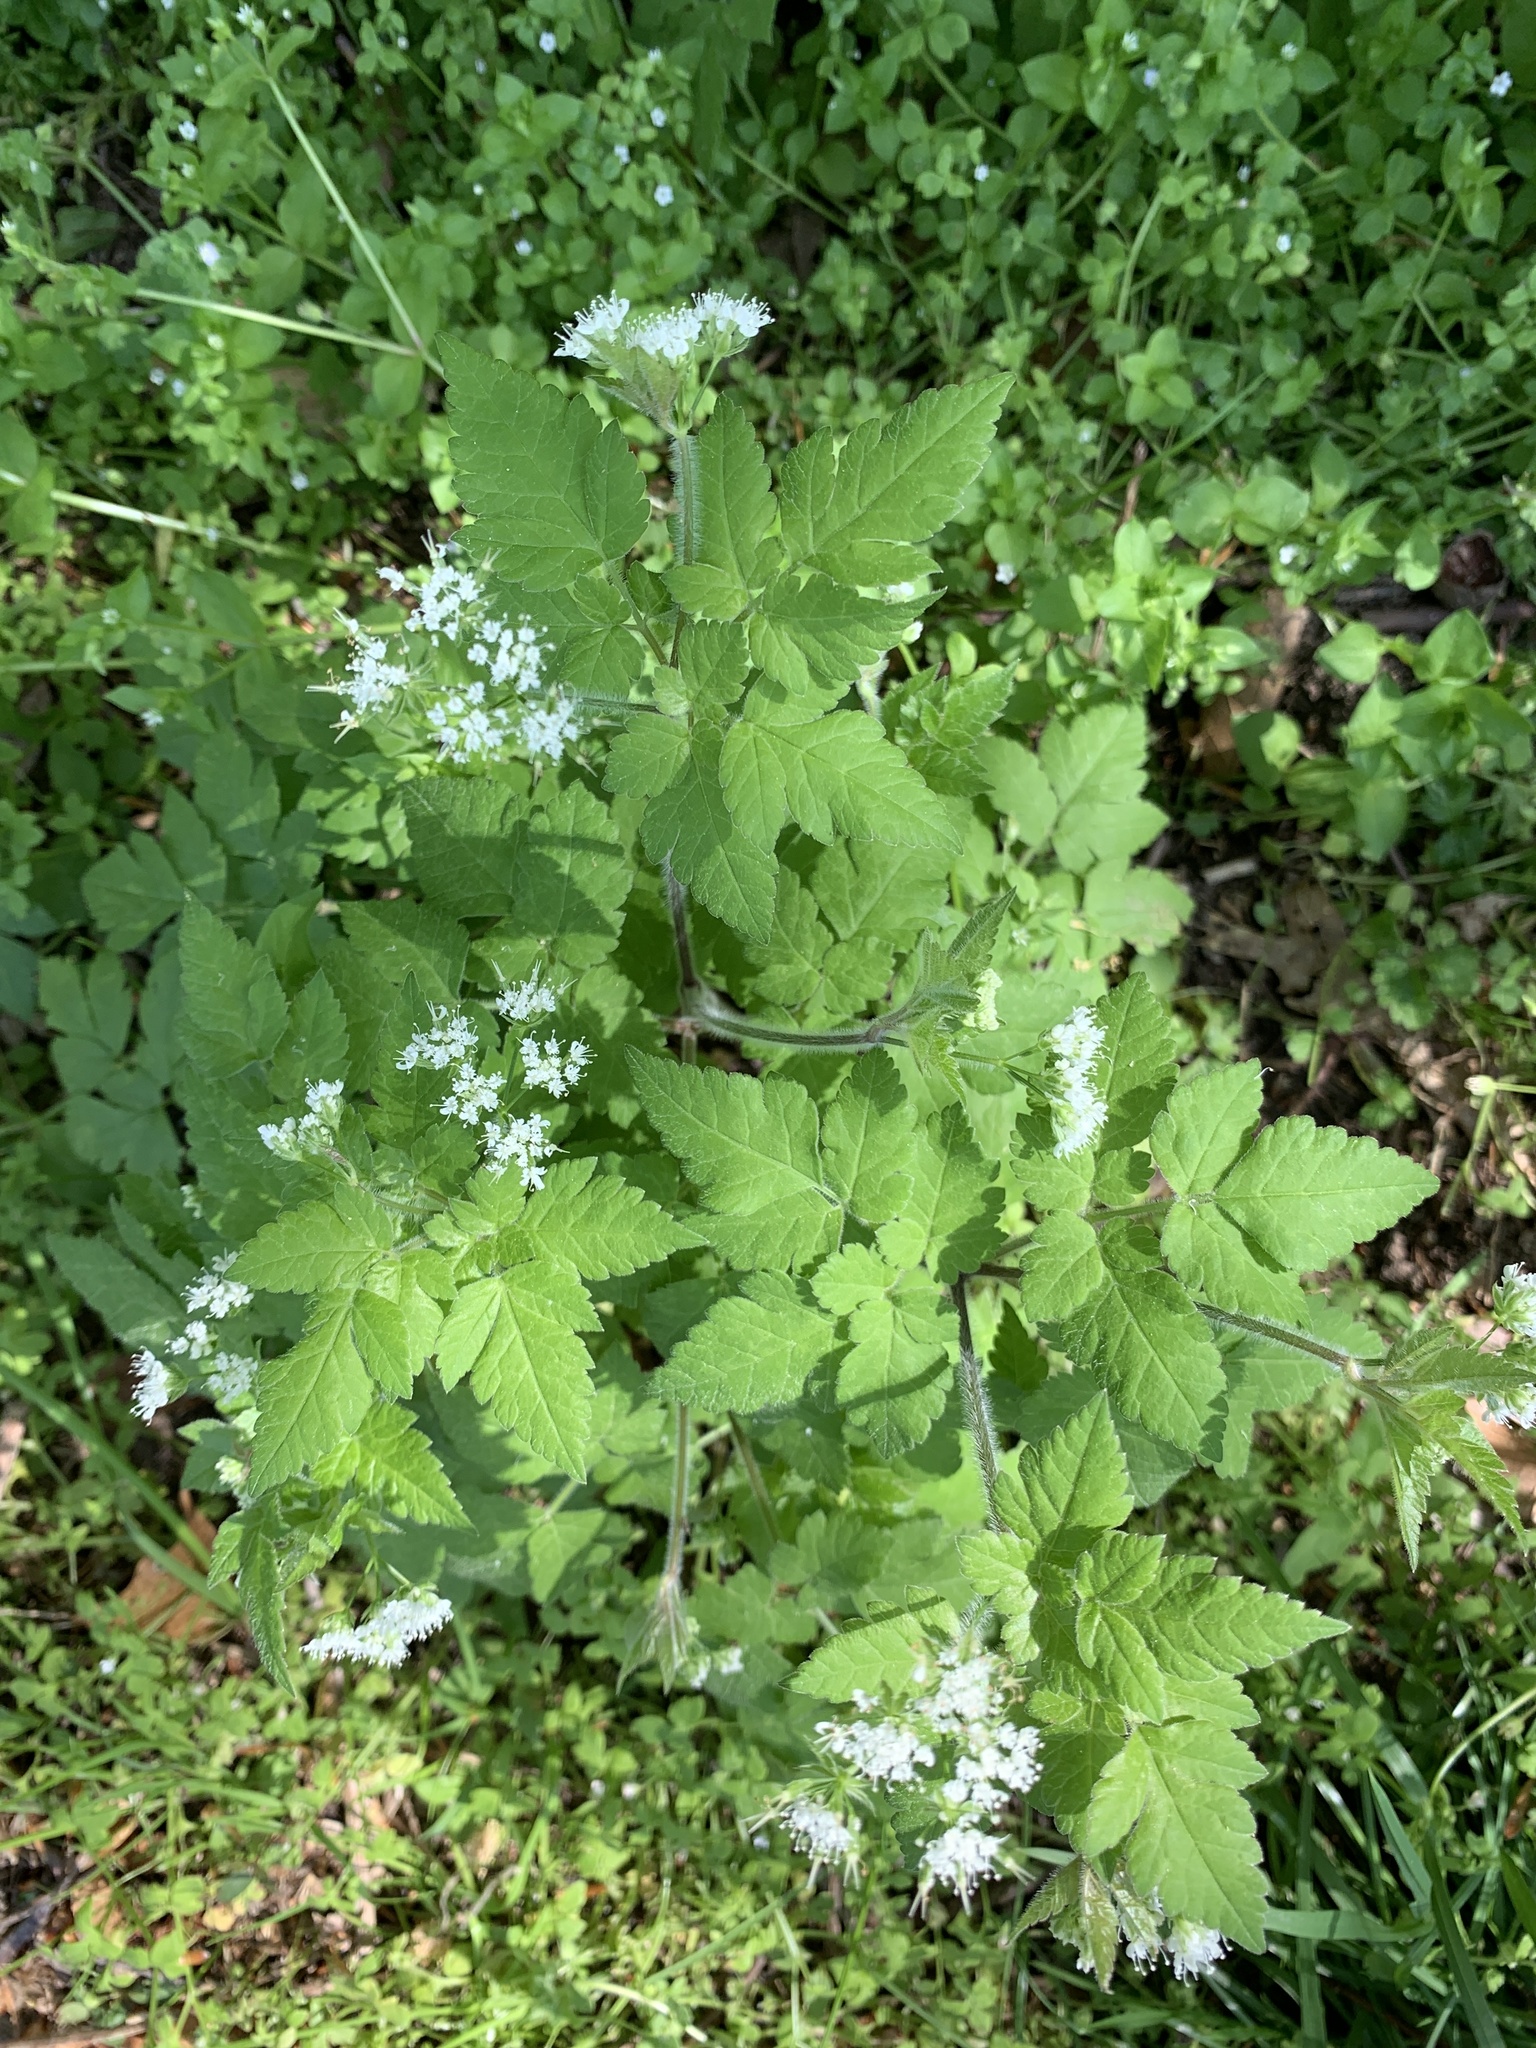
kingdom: Plantae
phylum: Tracheophyta
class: Magnoliopsida
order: Apiales
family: Apiaceae
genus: Osmorhiza
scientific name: Osmorhiza longistylis
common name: Smooth sweet cicely
